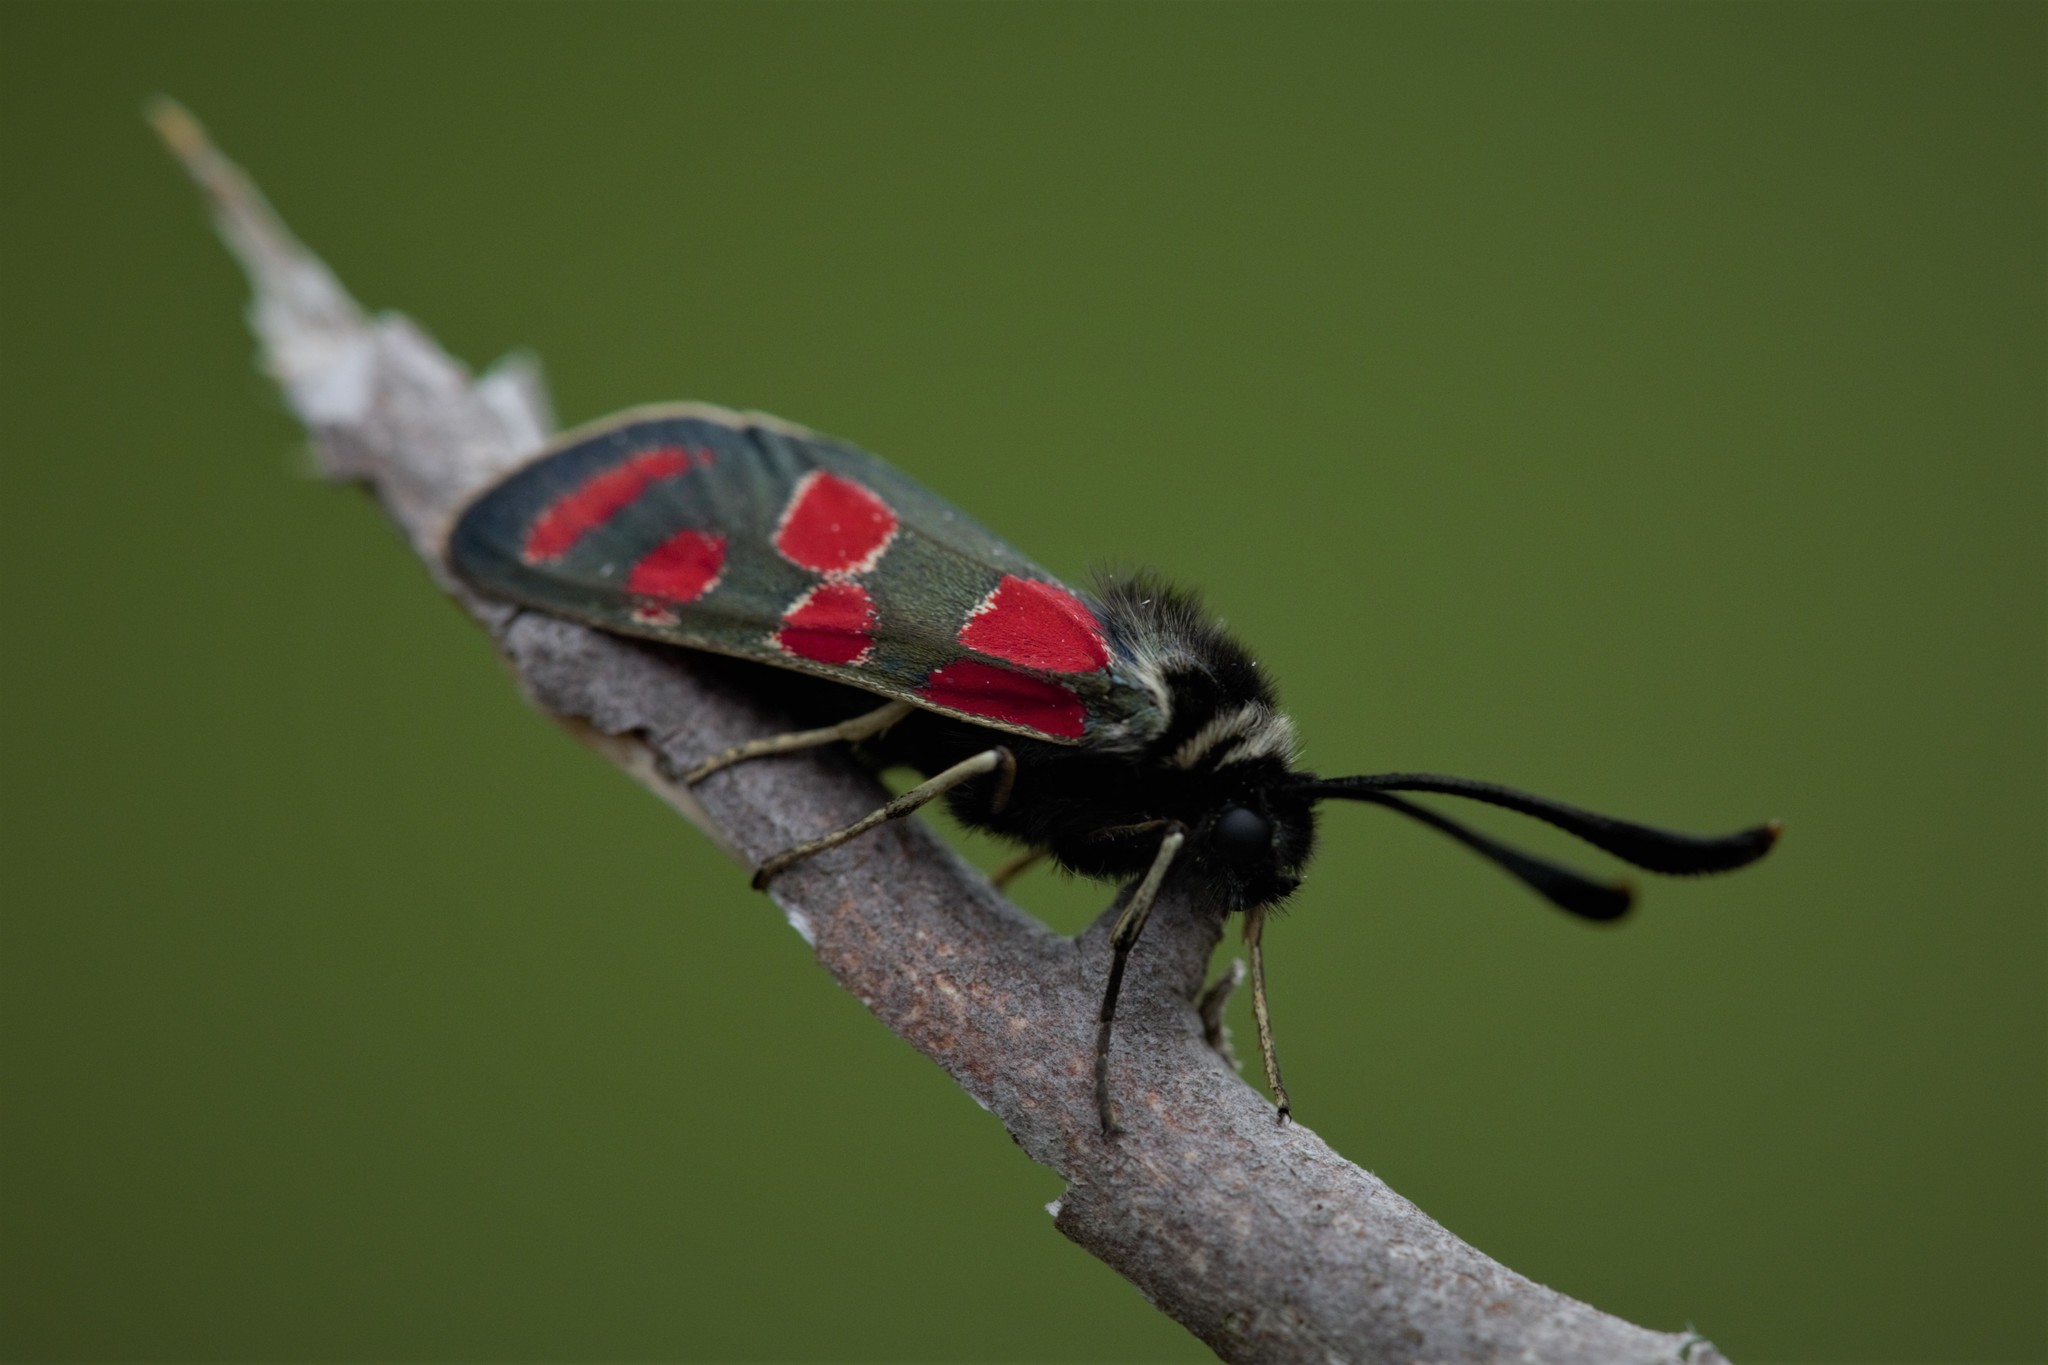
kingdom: Animalia
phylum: Arthropoda
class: Insecta
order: Lepidoptera
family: Zygaenidae
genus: Zygaena
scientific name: Zygaena carniolica
